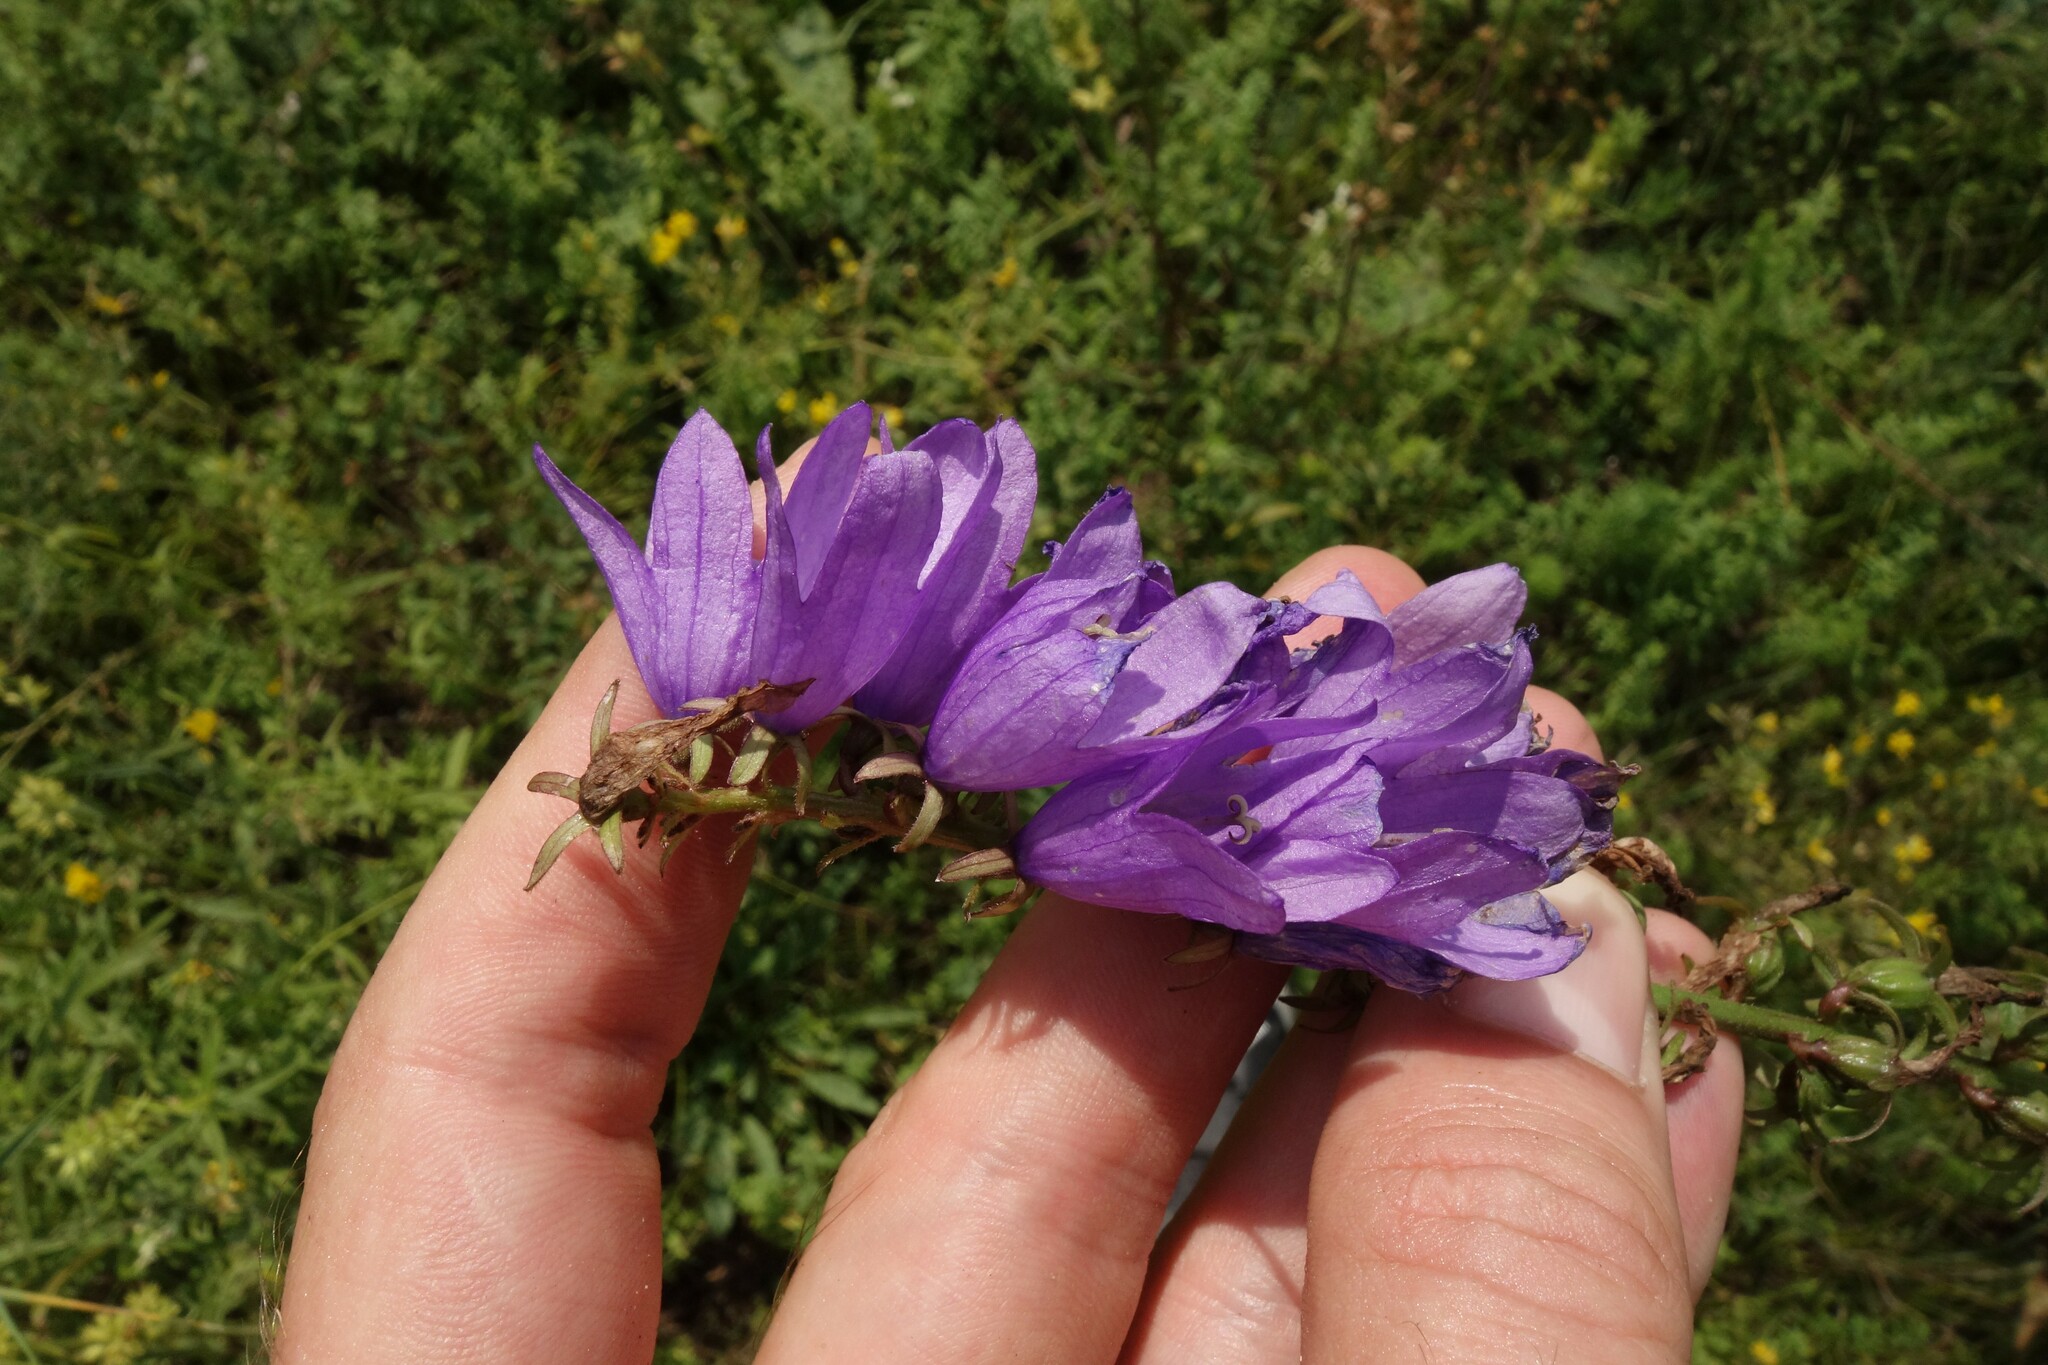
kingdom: Plantae
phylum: Tracheophyta
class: Magnoliopsida
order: Asterales
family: Campanulaceae
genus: Campanula
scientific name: Campanula rapunculoides
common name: Creeping bellflower
